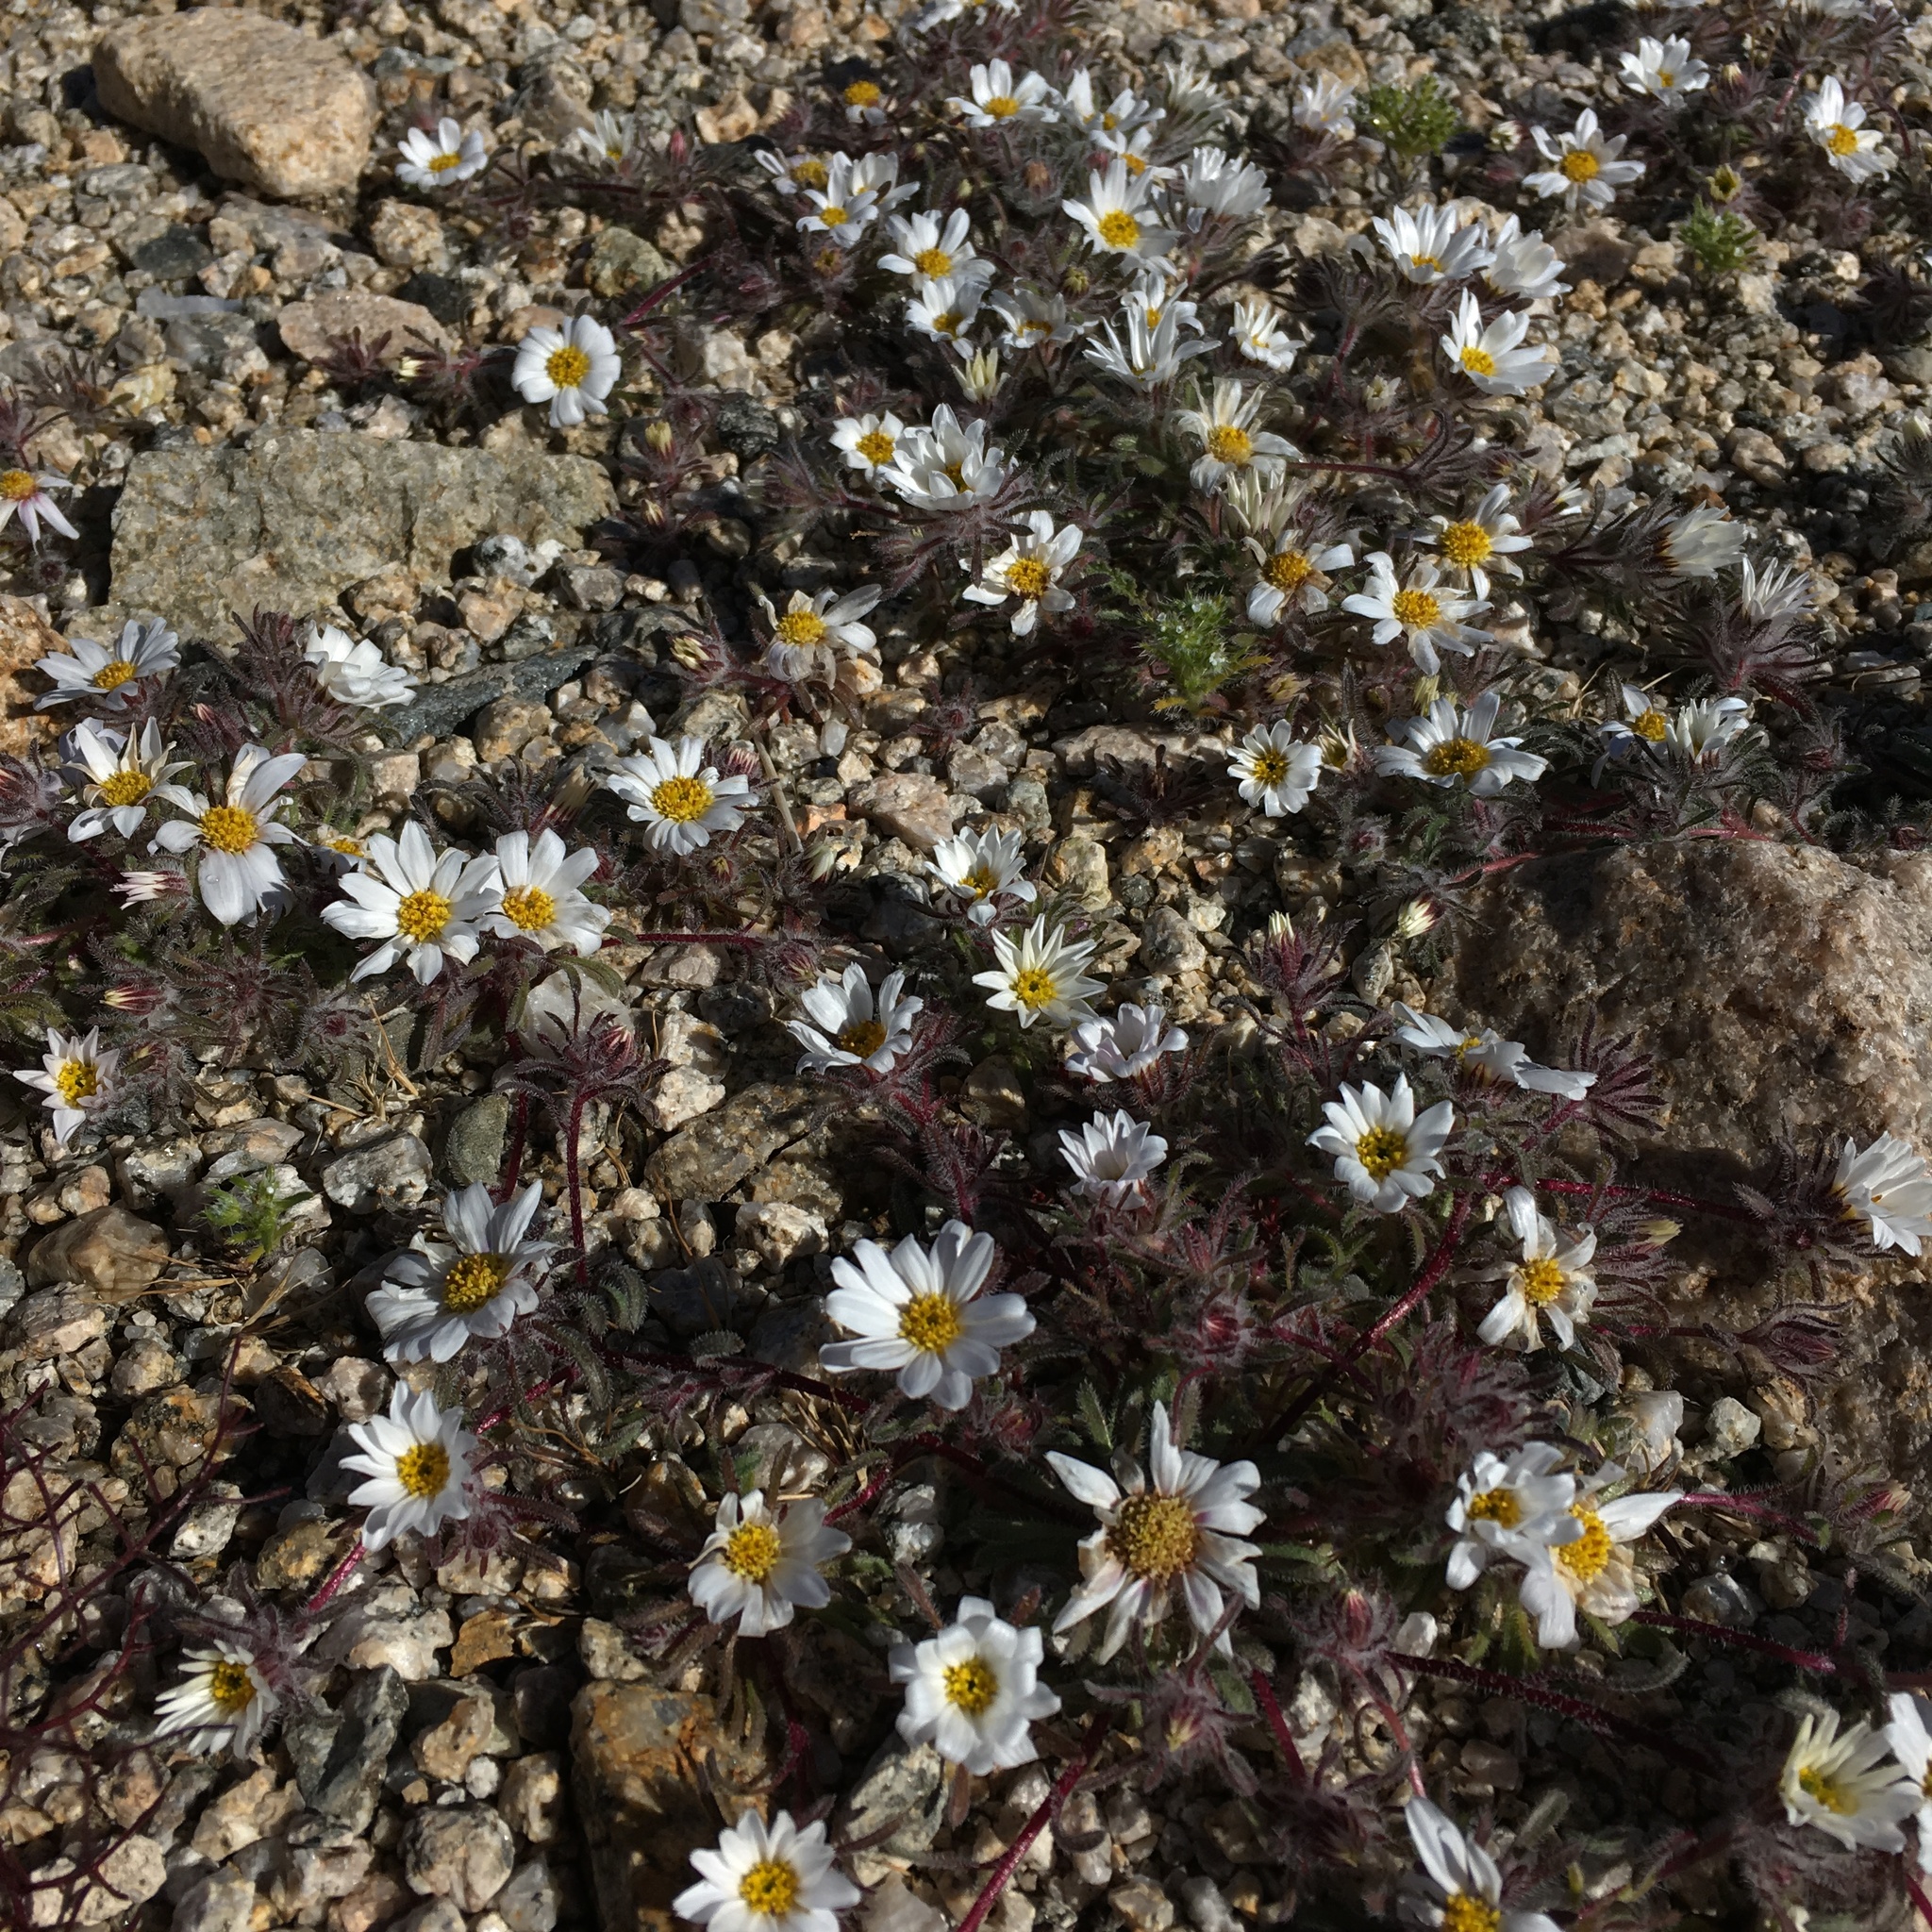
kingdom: Plantae
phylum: Tracheophyta
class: Magnoliopsida
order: Asterales
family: Asteraceae
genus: Monoptilon
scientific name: Monoptilon bellioides
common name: Bristly desertstar
